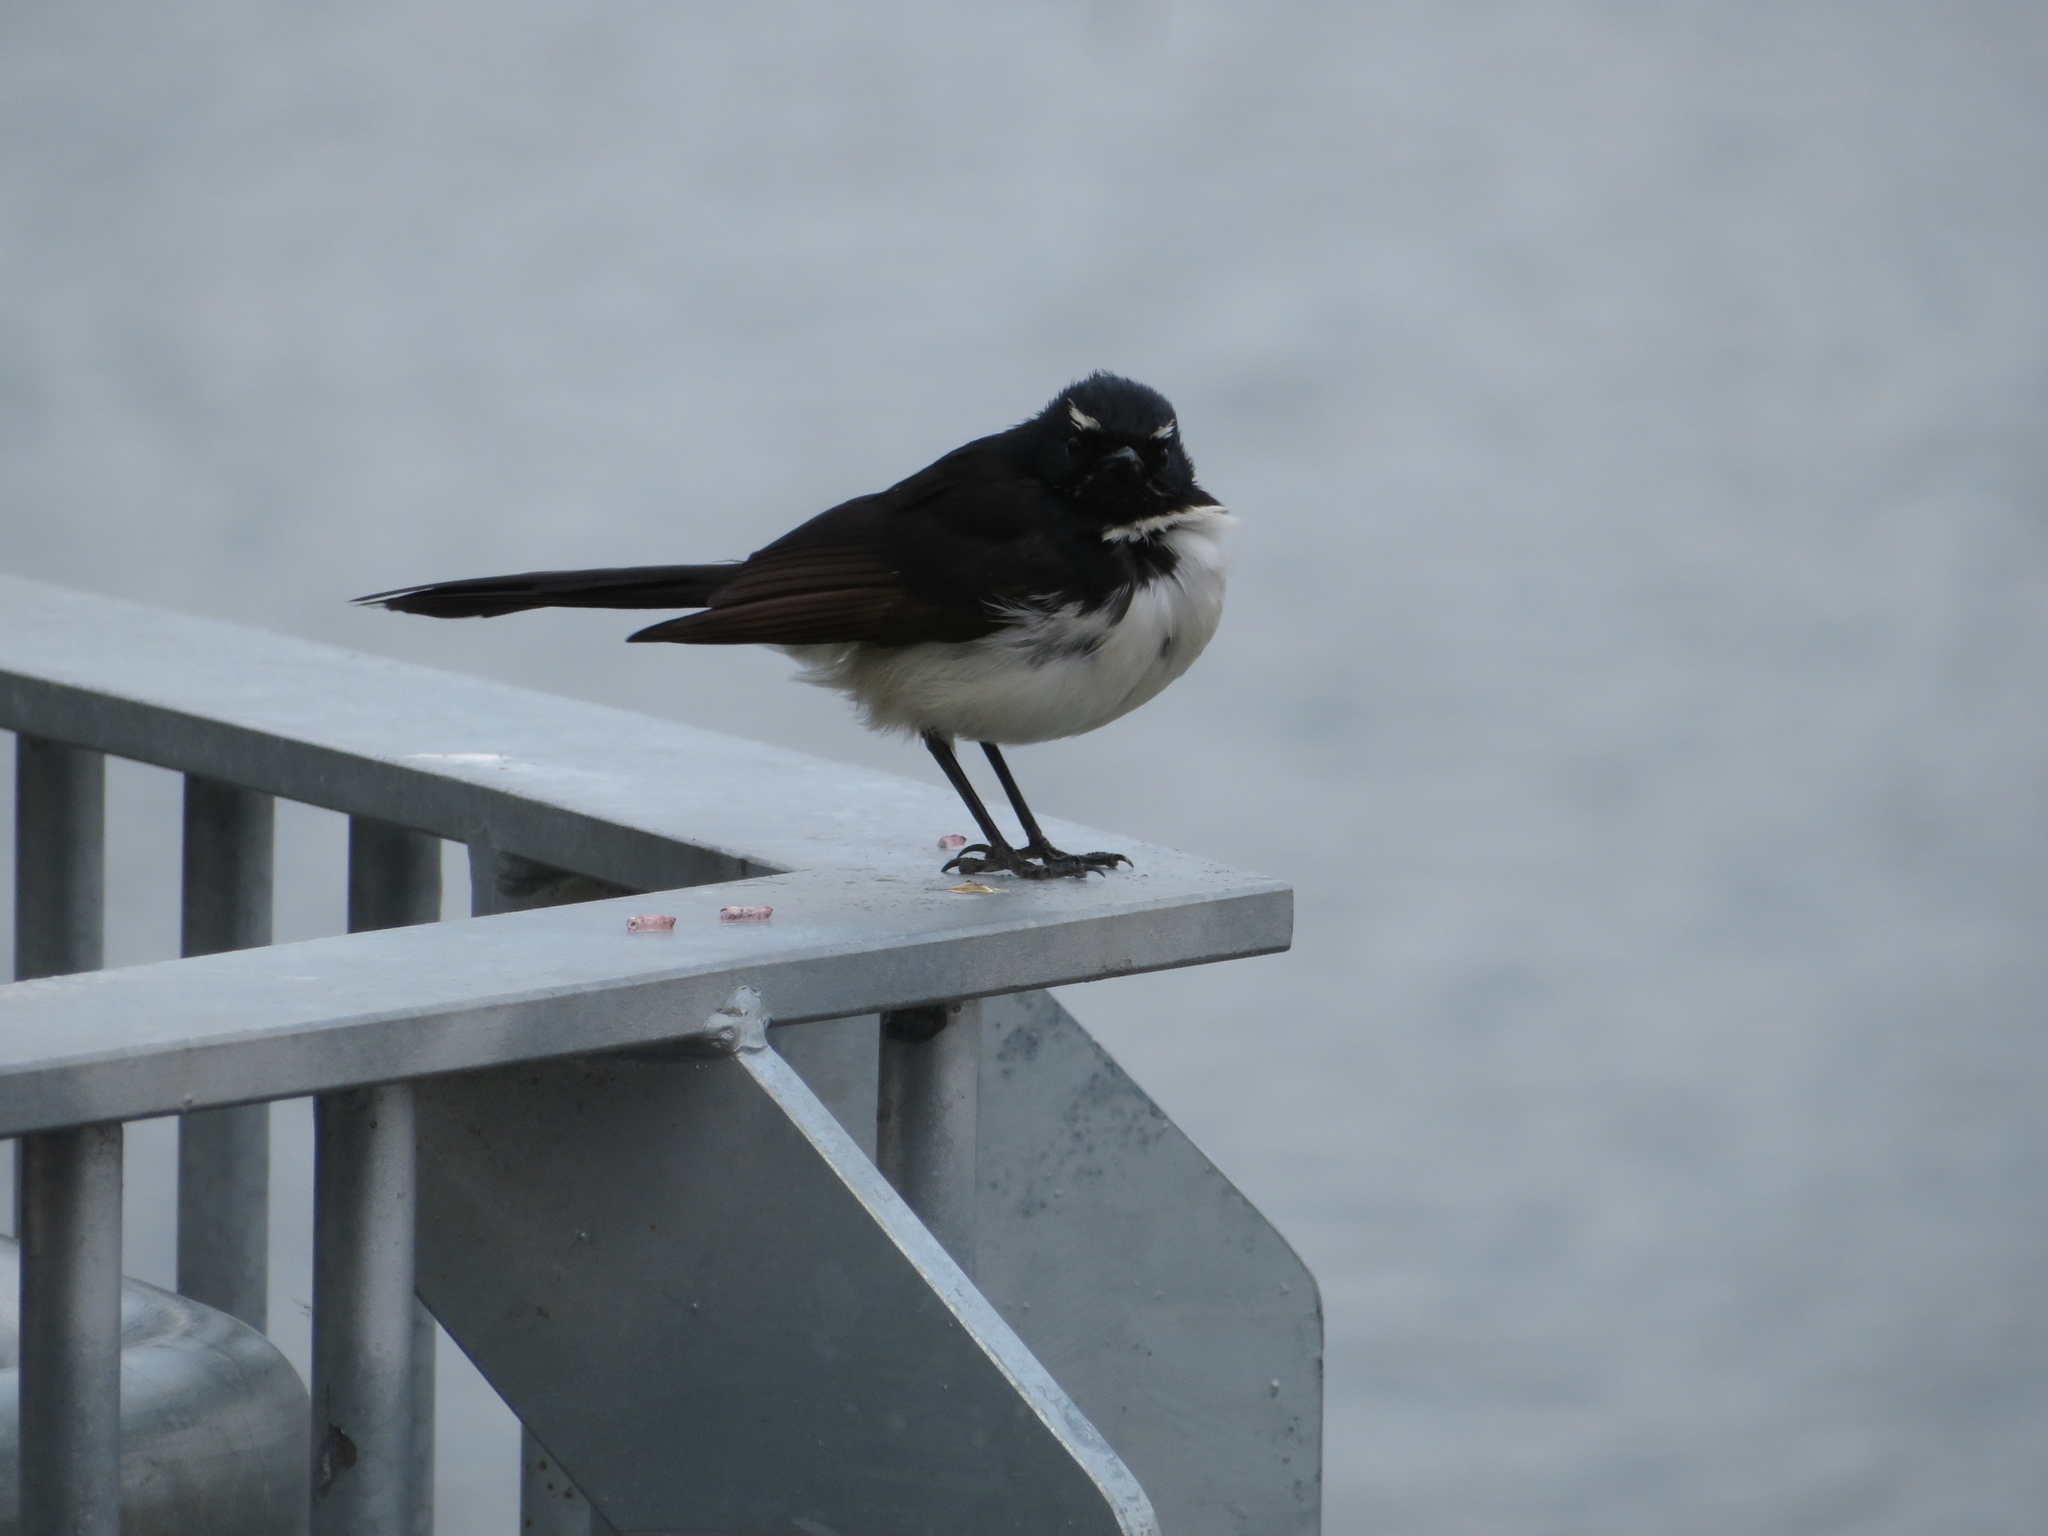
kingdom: Animalia
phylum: Chordata
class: Aves
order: Passeriformes
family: Rhipiduridae
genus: Rhipidura
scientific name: Rhipidura leucophrys
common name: Willie wagtail
